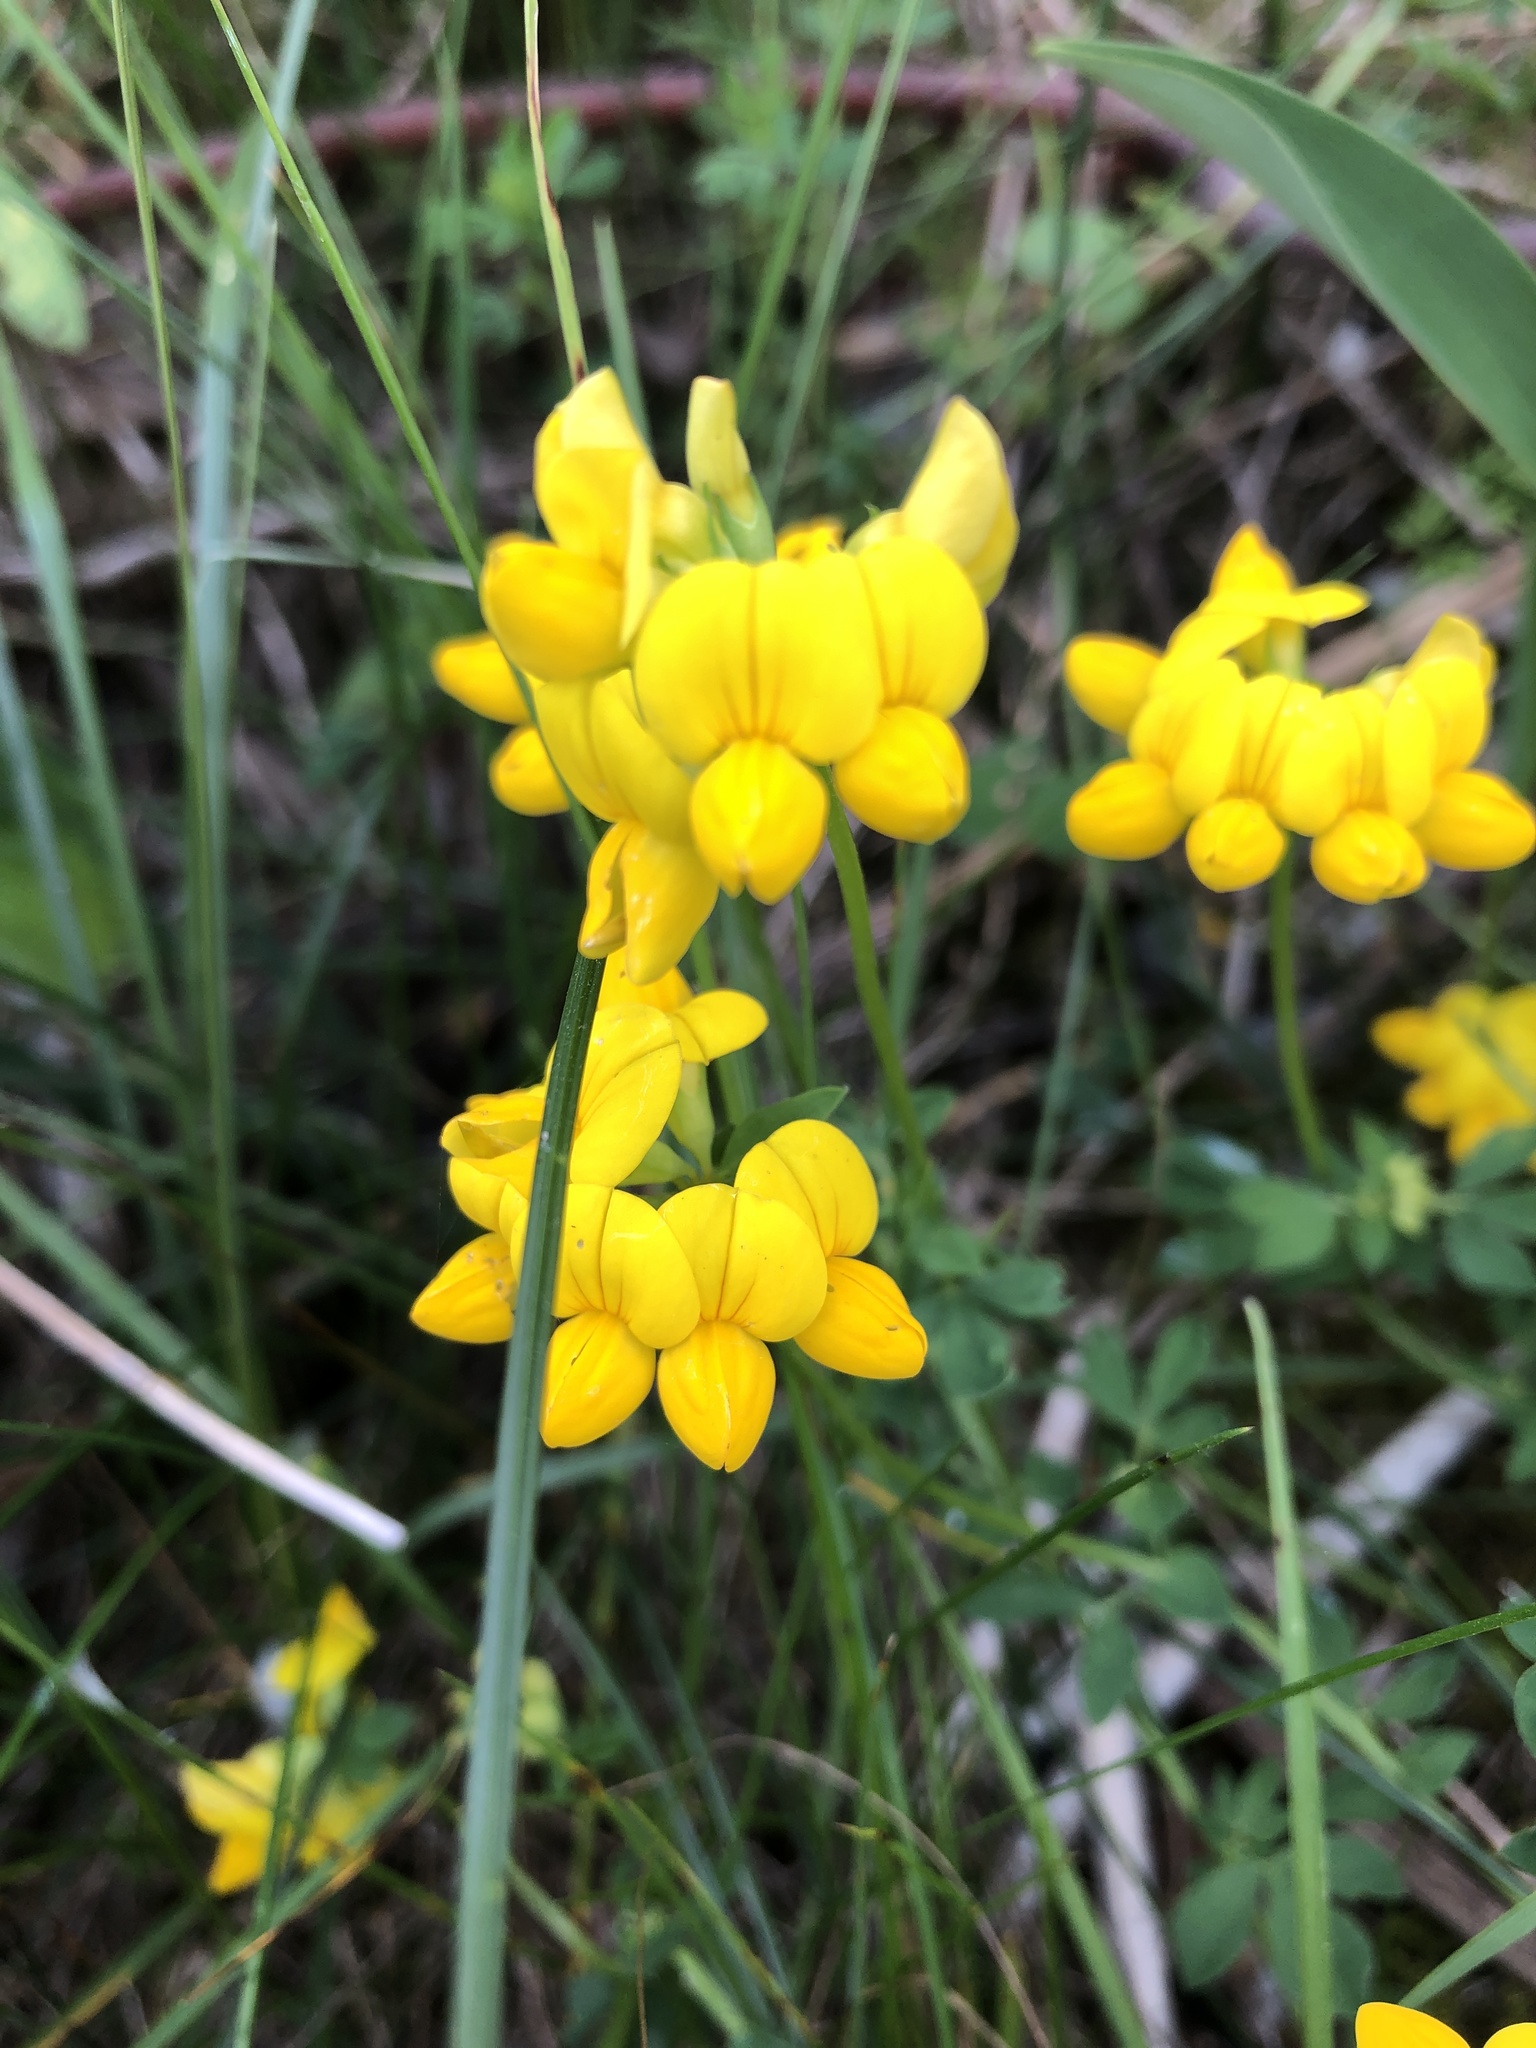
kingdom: Plantae
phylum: Tracheophyta
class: Magnoliopsida
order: Fabales
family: Fabaceae
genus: Lotus
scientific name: Lotus corniculatus
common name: Common bird's-foot-trefoil
